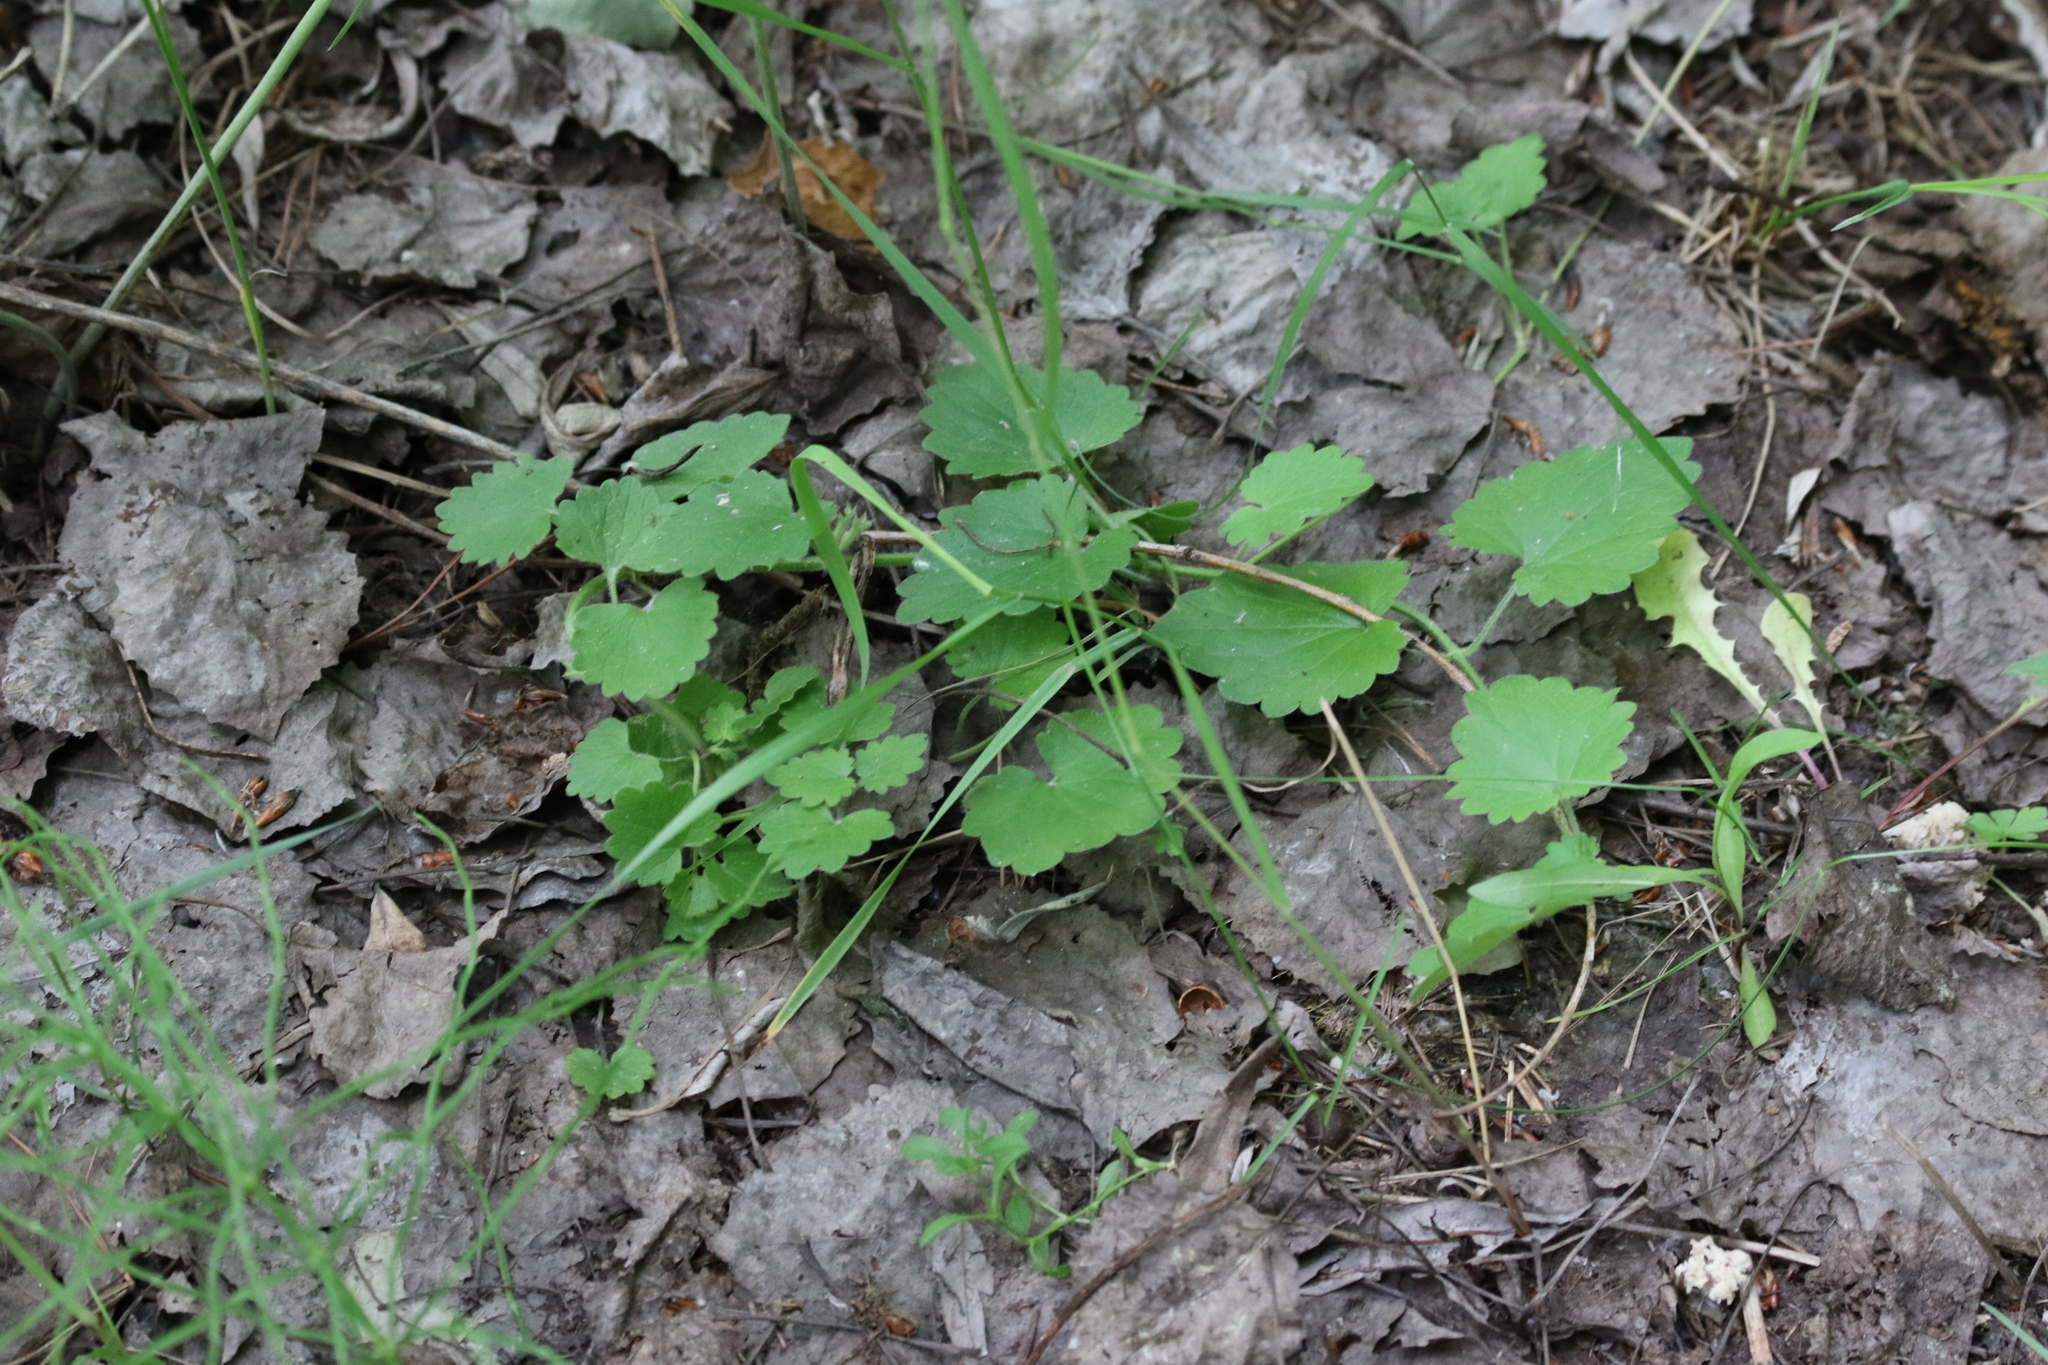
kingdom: Plantae
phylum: Tracheophyta
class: Magnoliopsida
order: Lamiales
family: Lamiaceae
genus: Glechoma
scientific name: Glechoma hederacea
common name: Ground ivy
